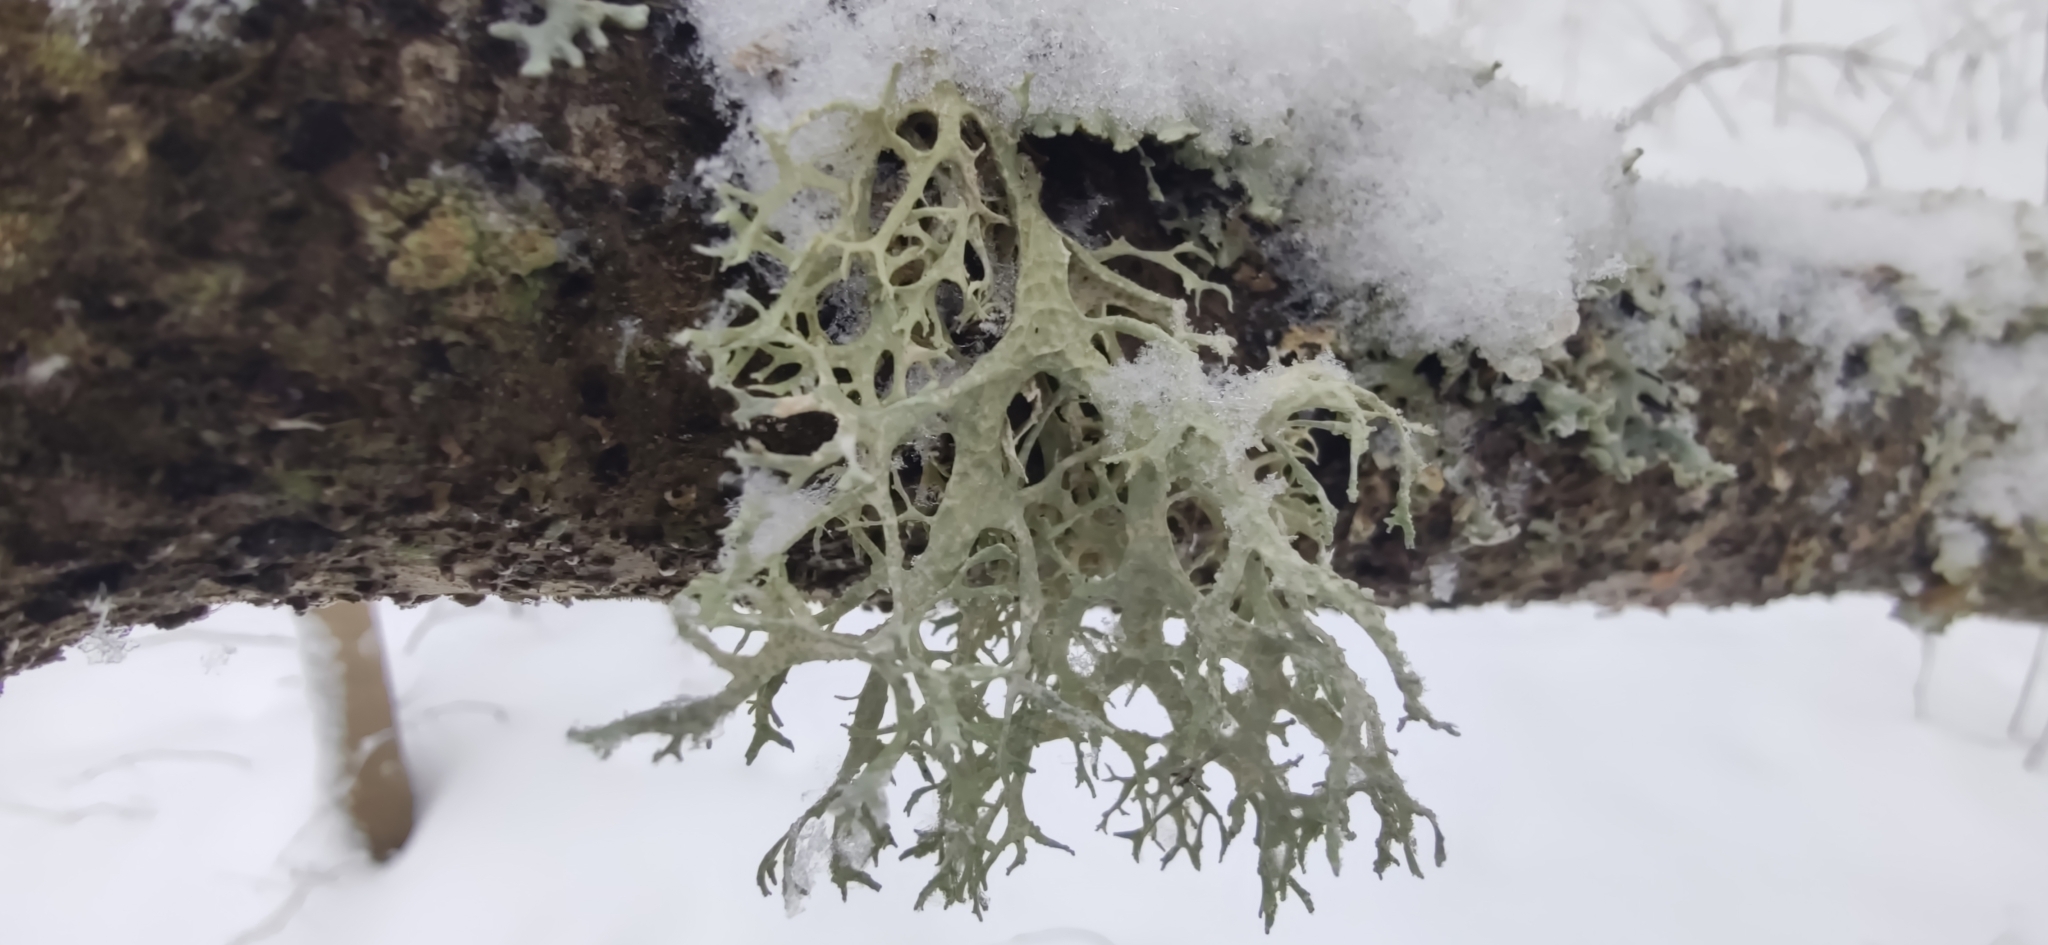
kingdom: Fungi
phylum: Ascomycota
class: Lecanoromycetes
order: Lecanorales
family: Parmeliaceae
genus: Evernia
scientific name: Evernia prunastri
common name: Oak moss
